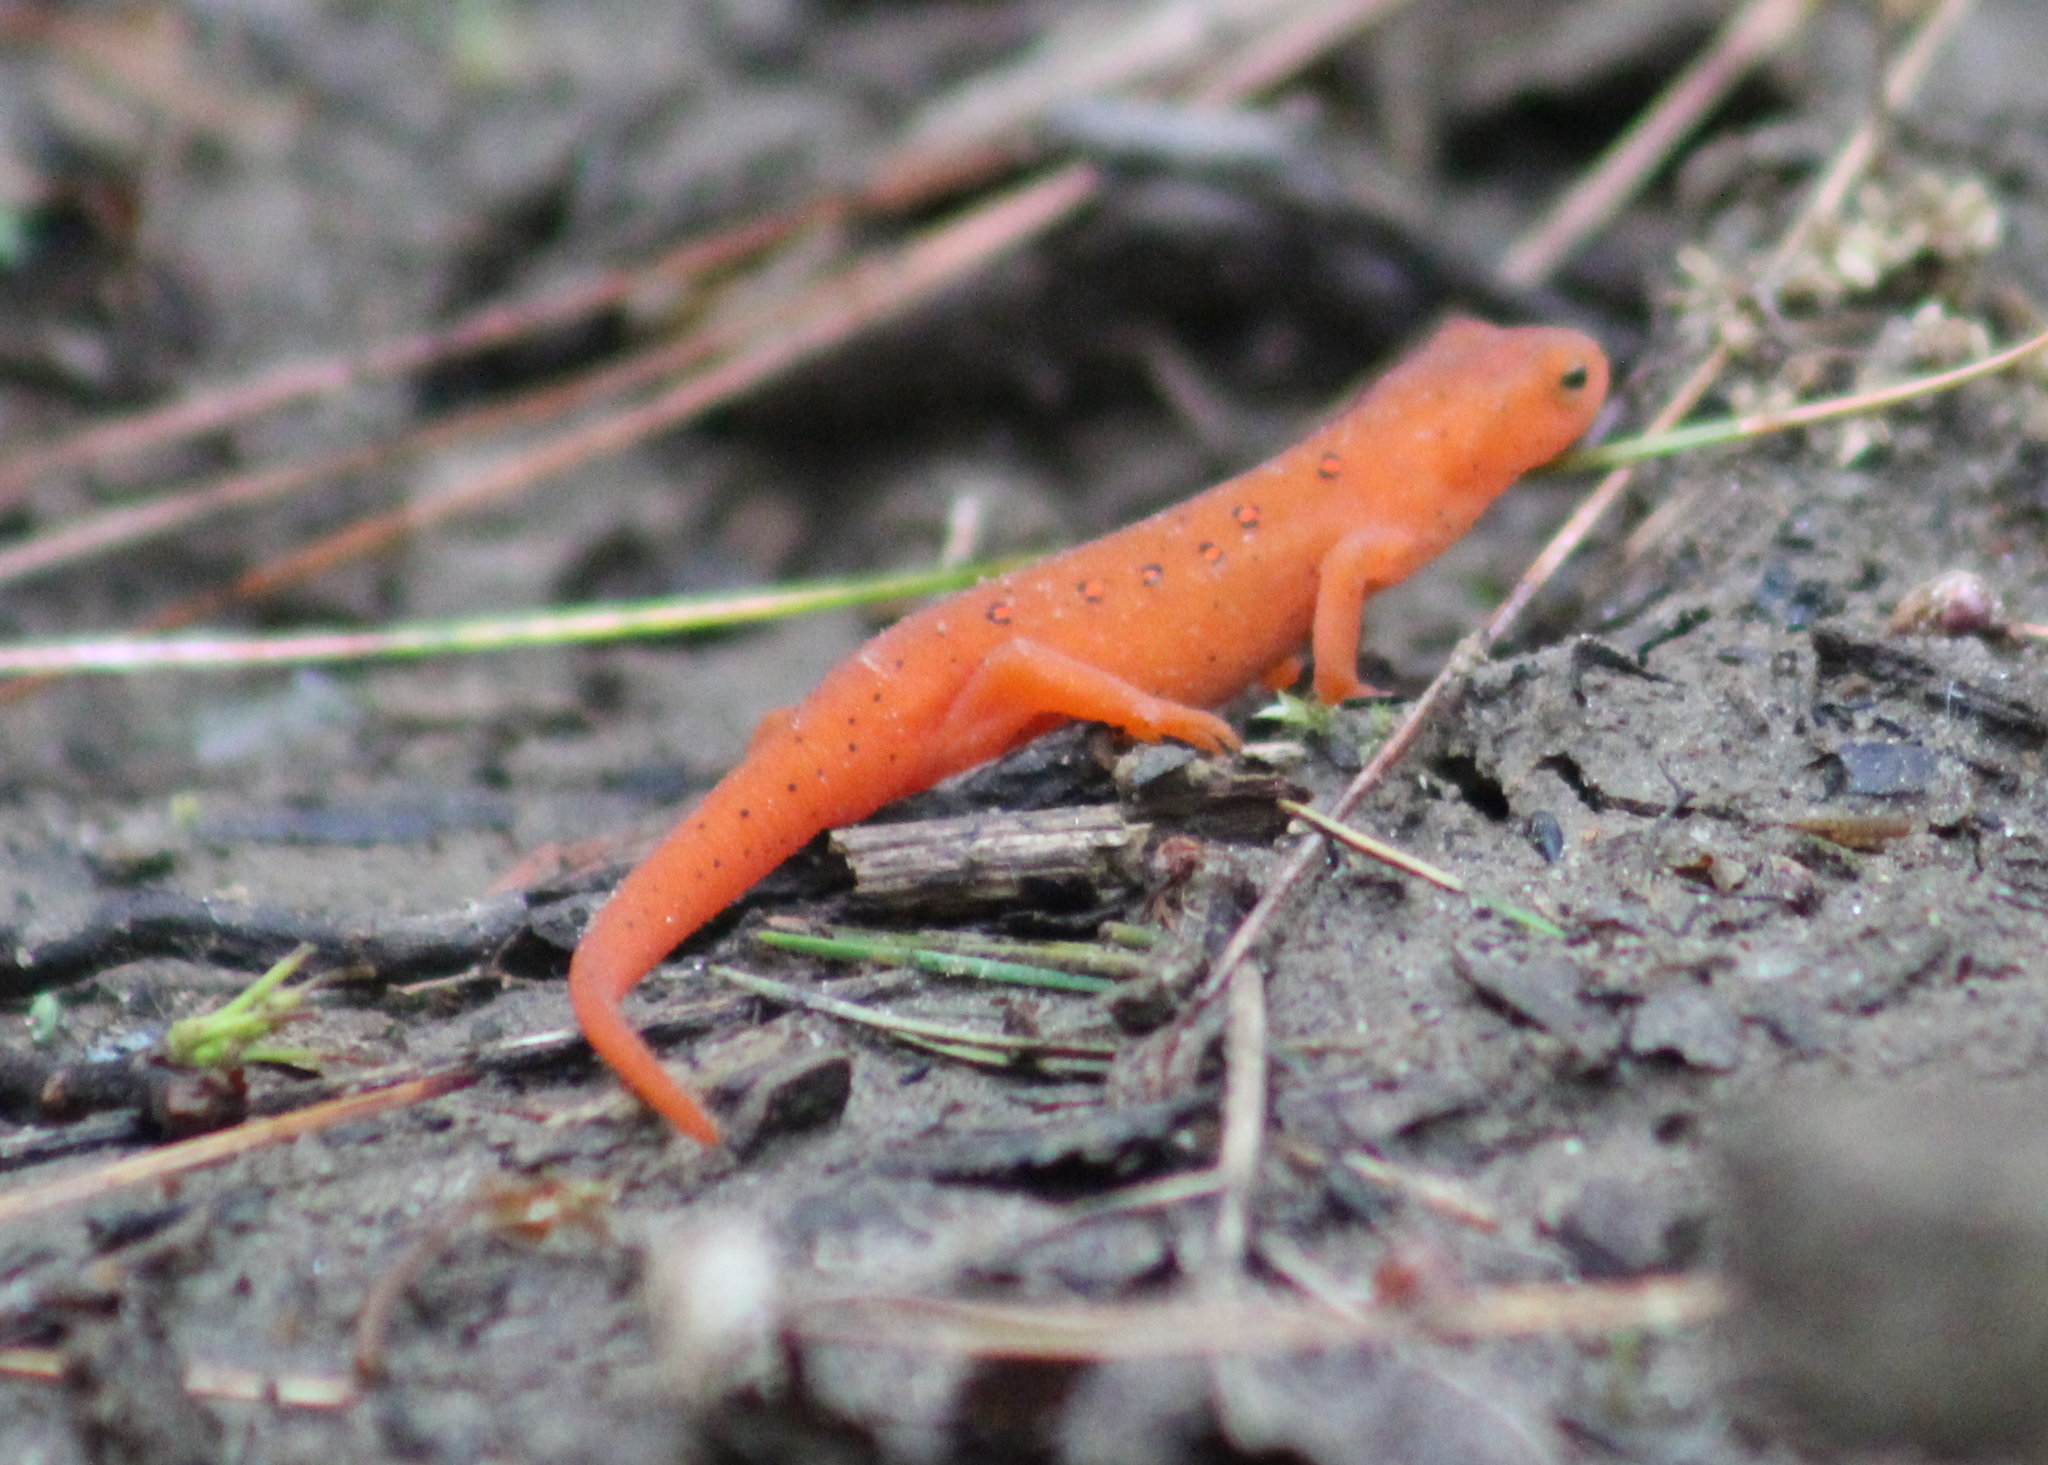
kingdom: Animalia
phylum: Chordata
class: Amphibia
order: Caudata
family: Salamandridae
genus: Notophthalmus
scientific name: Notophthalmus viridescens
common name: Eastern newt
